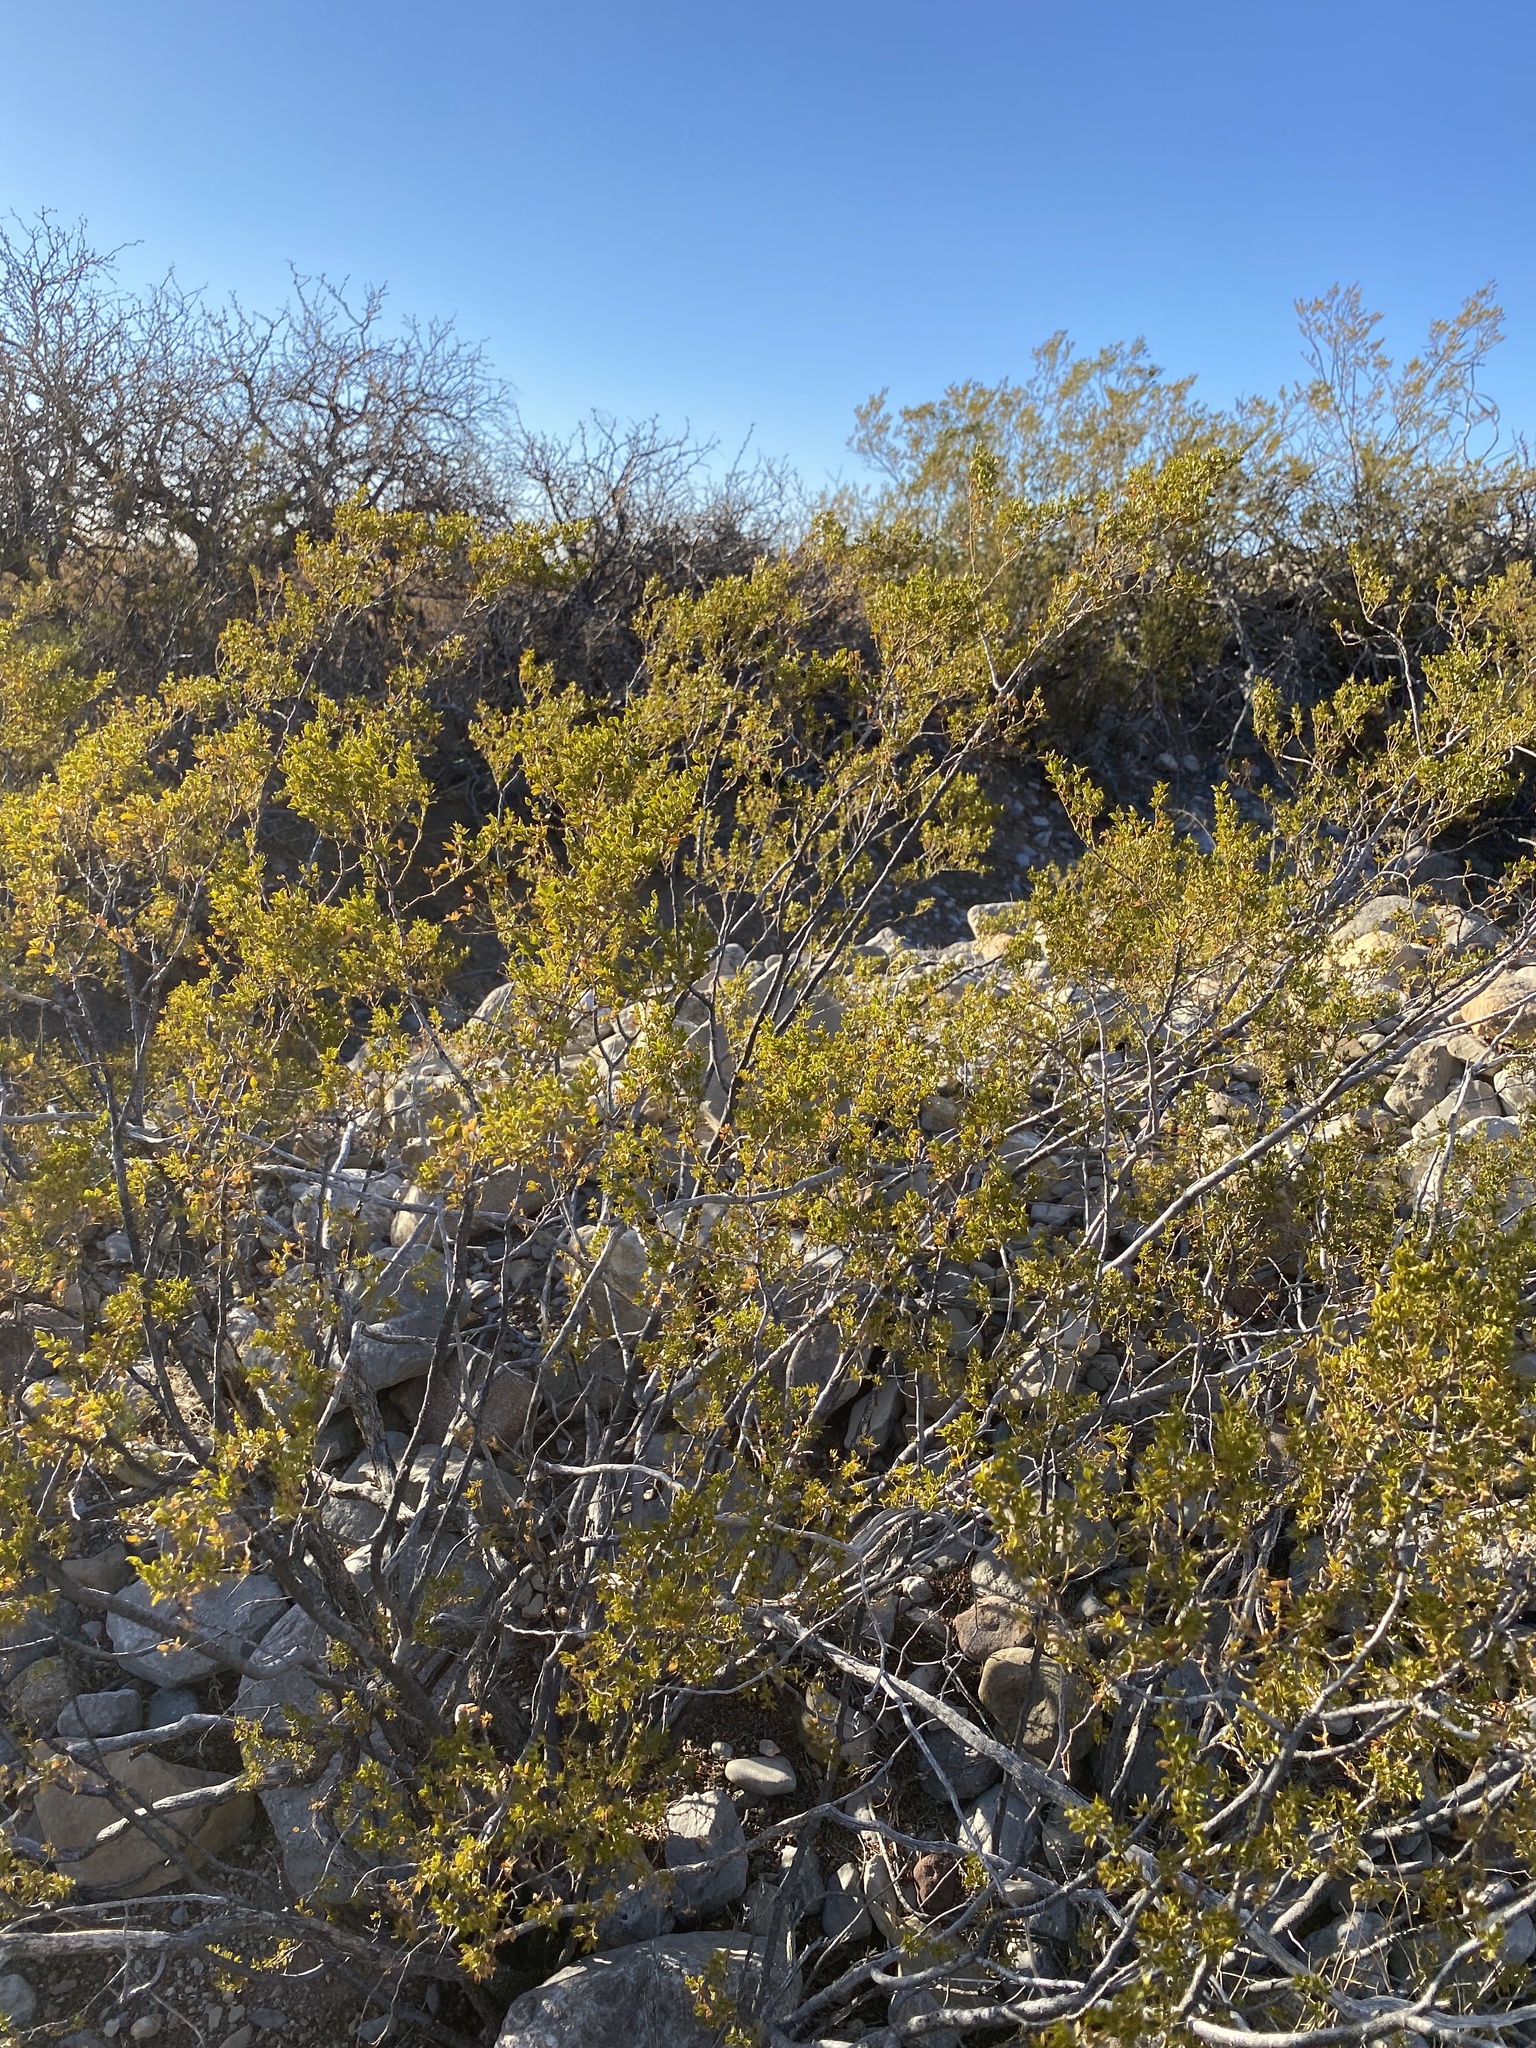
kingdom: Plantae
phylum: Tracheophyta
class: Magnoliopsida
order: Zygophyllales
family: Zygophyllaceae
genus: Larrea
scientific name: Larrea tridentata
